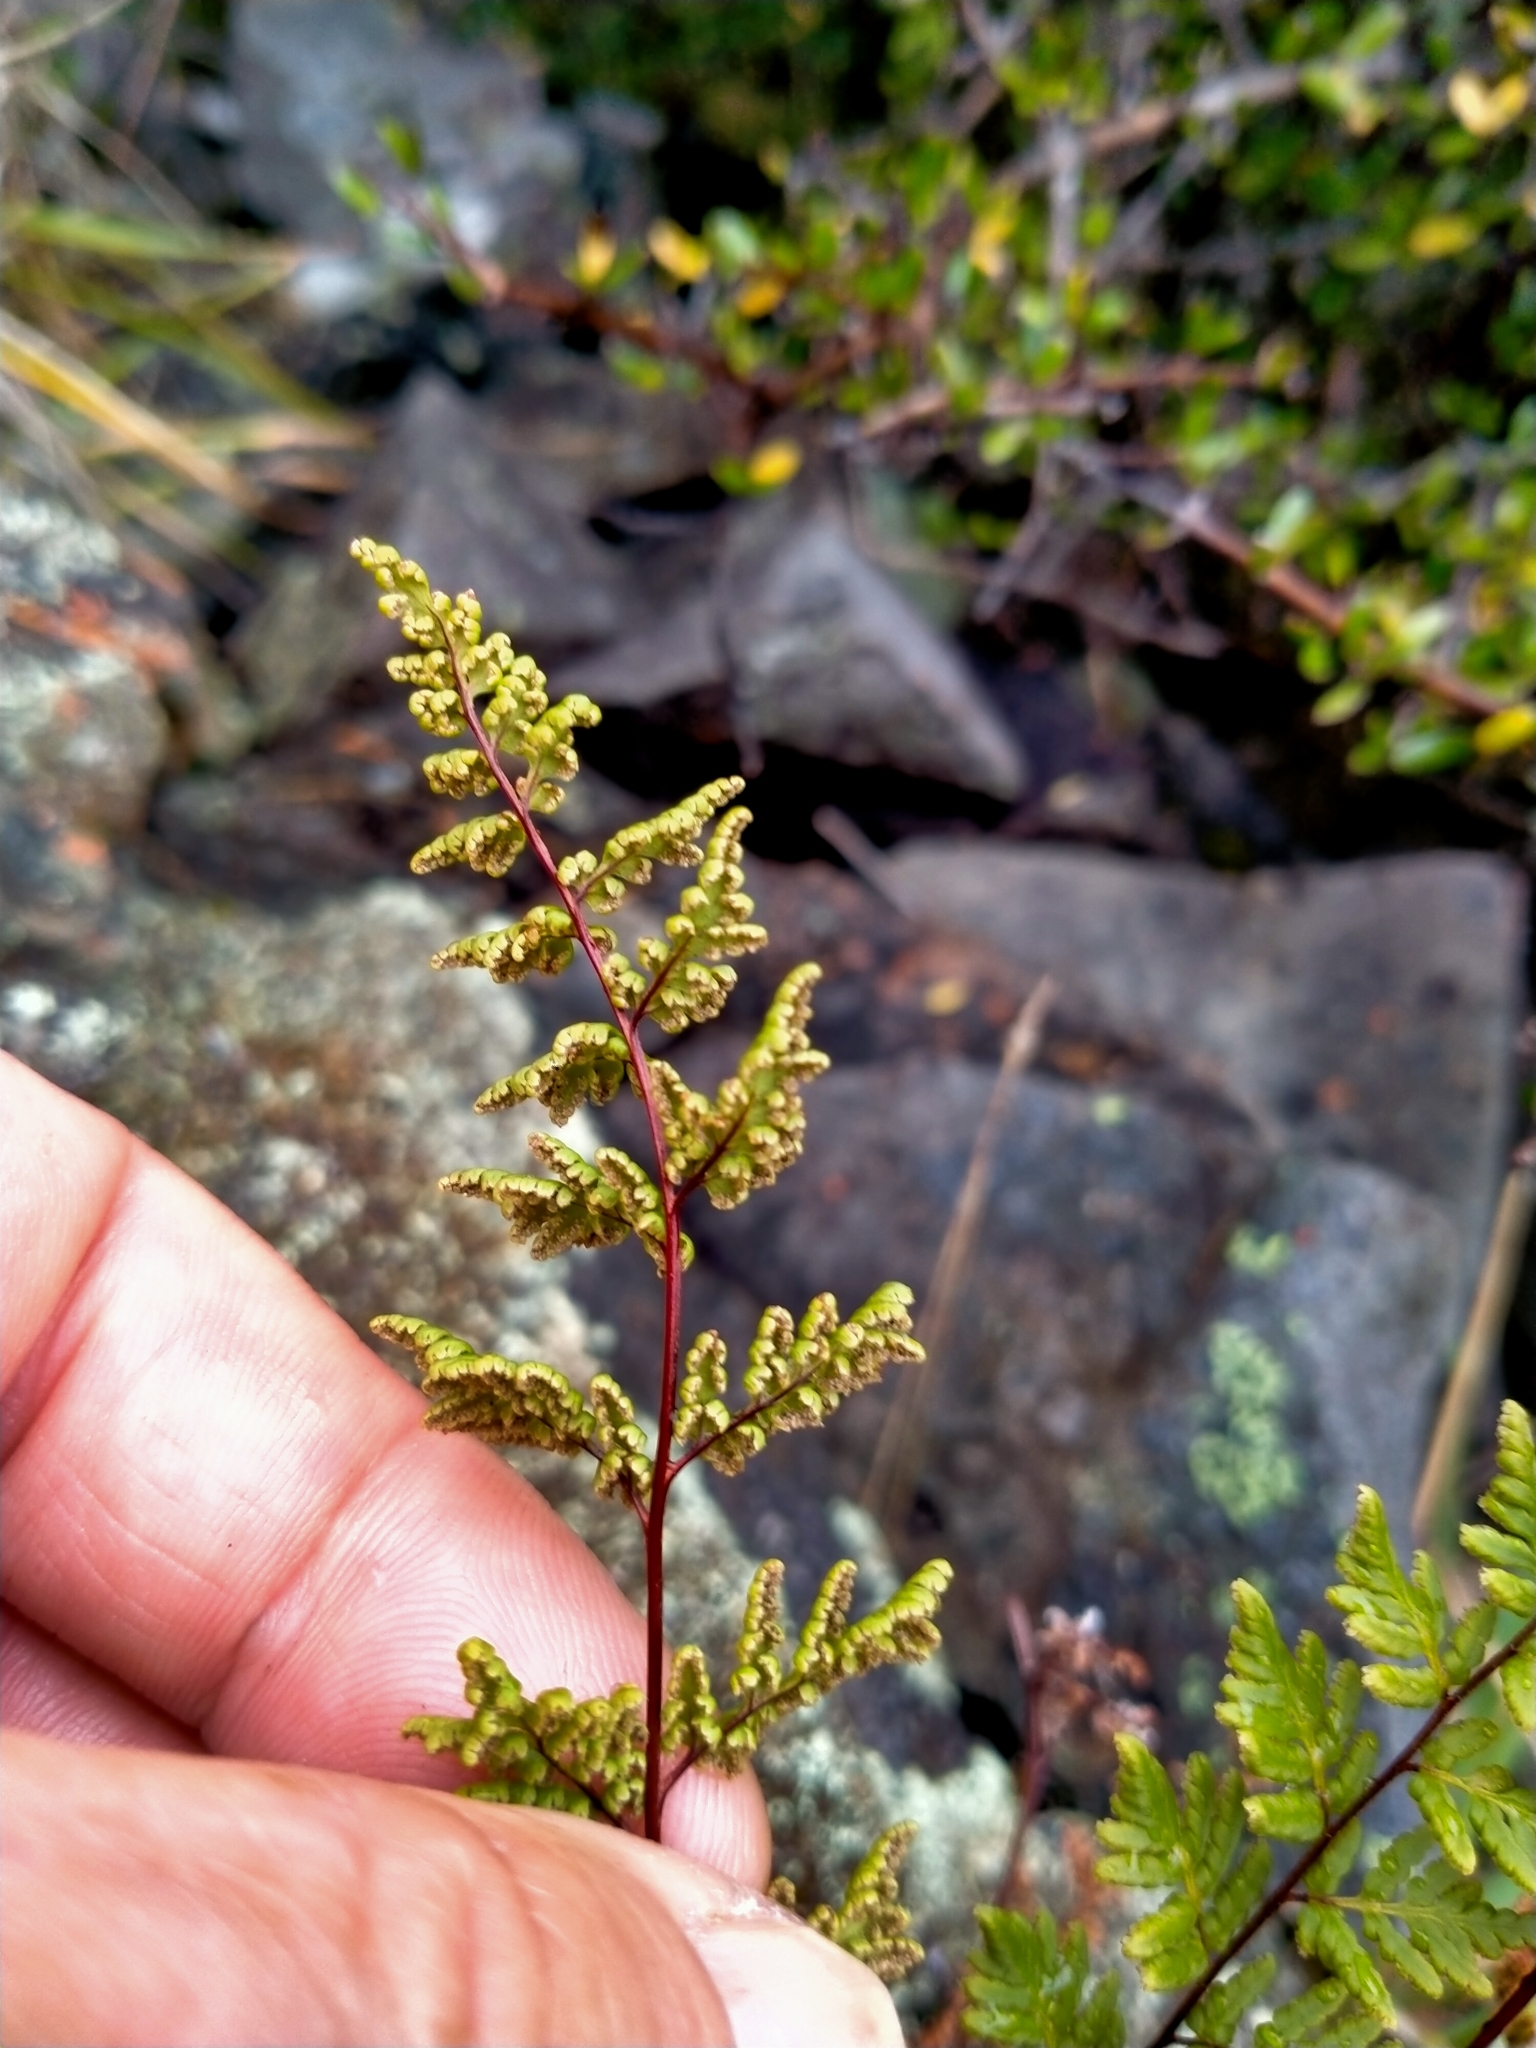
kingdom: Plantae
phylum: Tracheophyta
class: Polypodiopsida
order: Polypodiales
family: Pteridaceae
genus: Cheilanthes
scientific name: Cheilanthes sieberi
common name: Mulga fern
